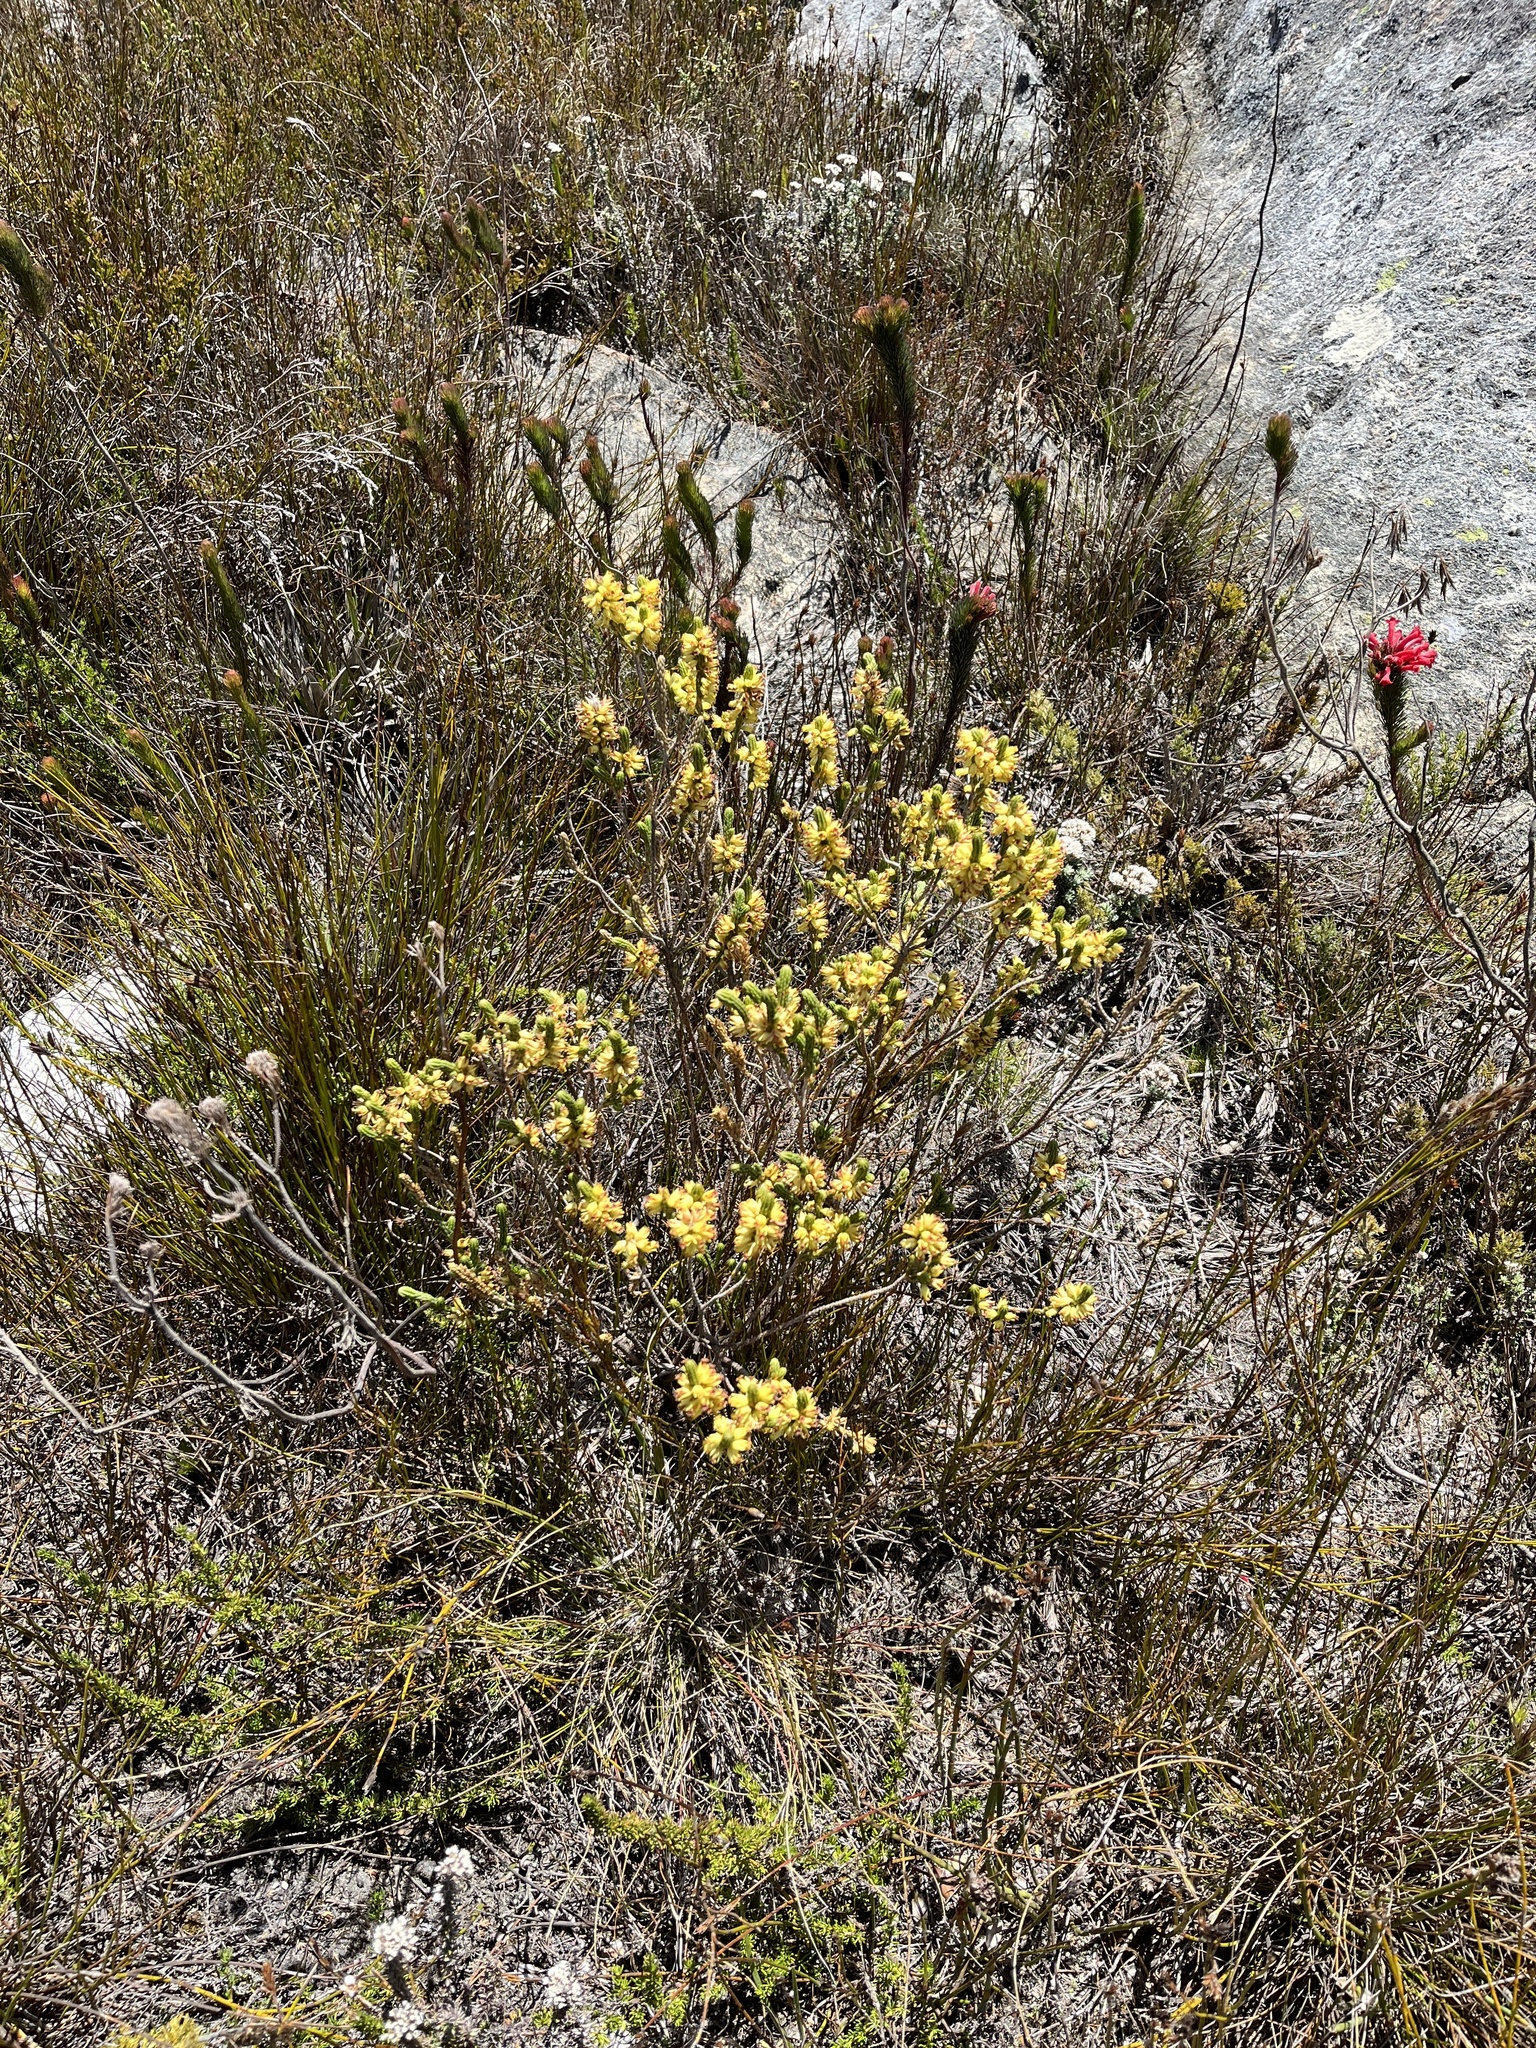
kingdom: Plantae
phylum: Tracheophyta
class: Magnoliopsida
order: Ericales
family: Ericaceae
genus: Erica
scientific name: Erica chlorosepala
